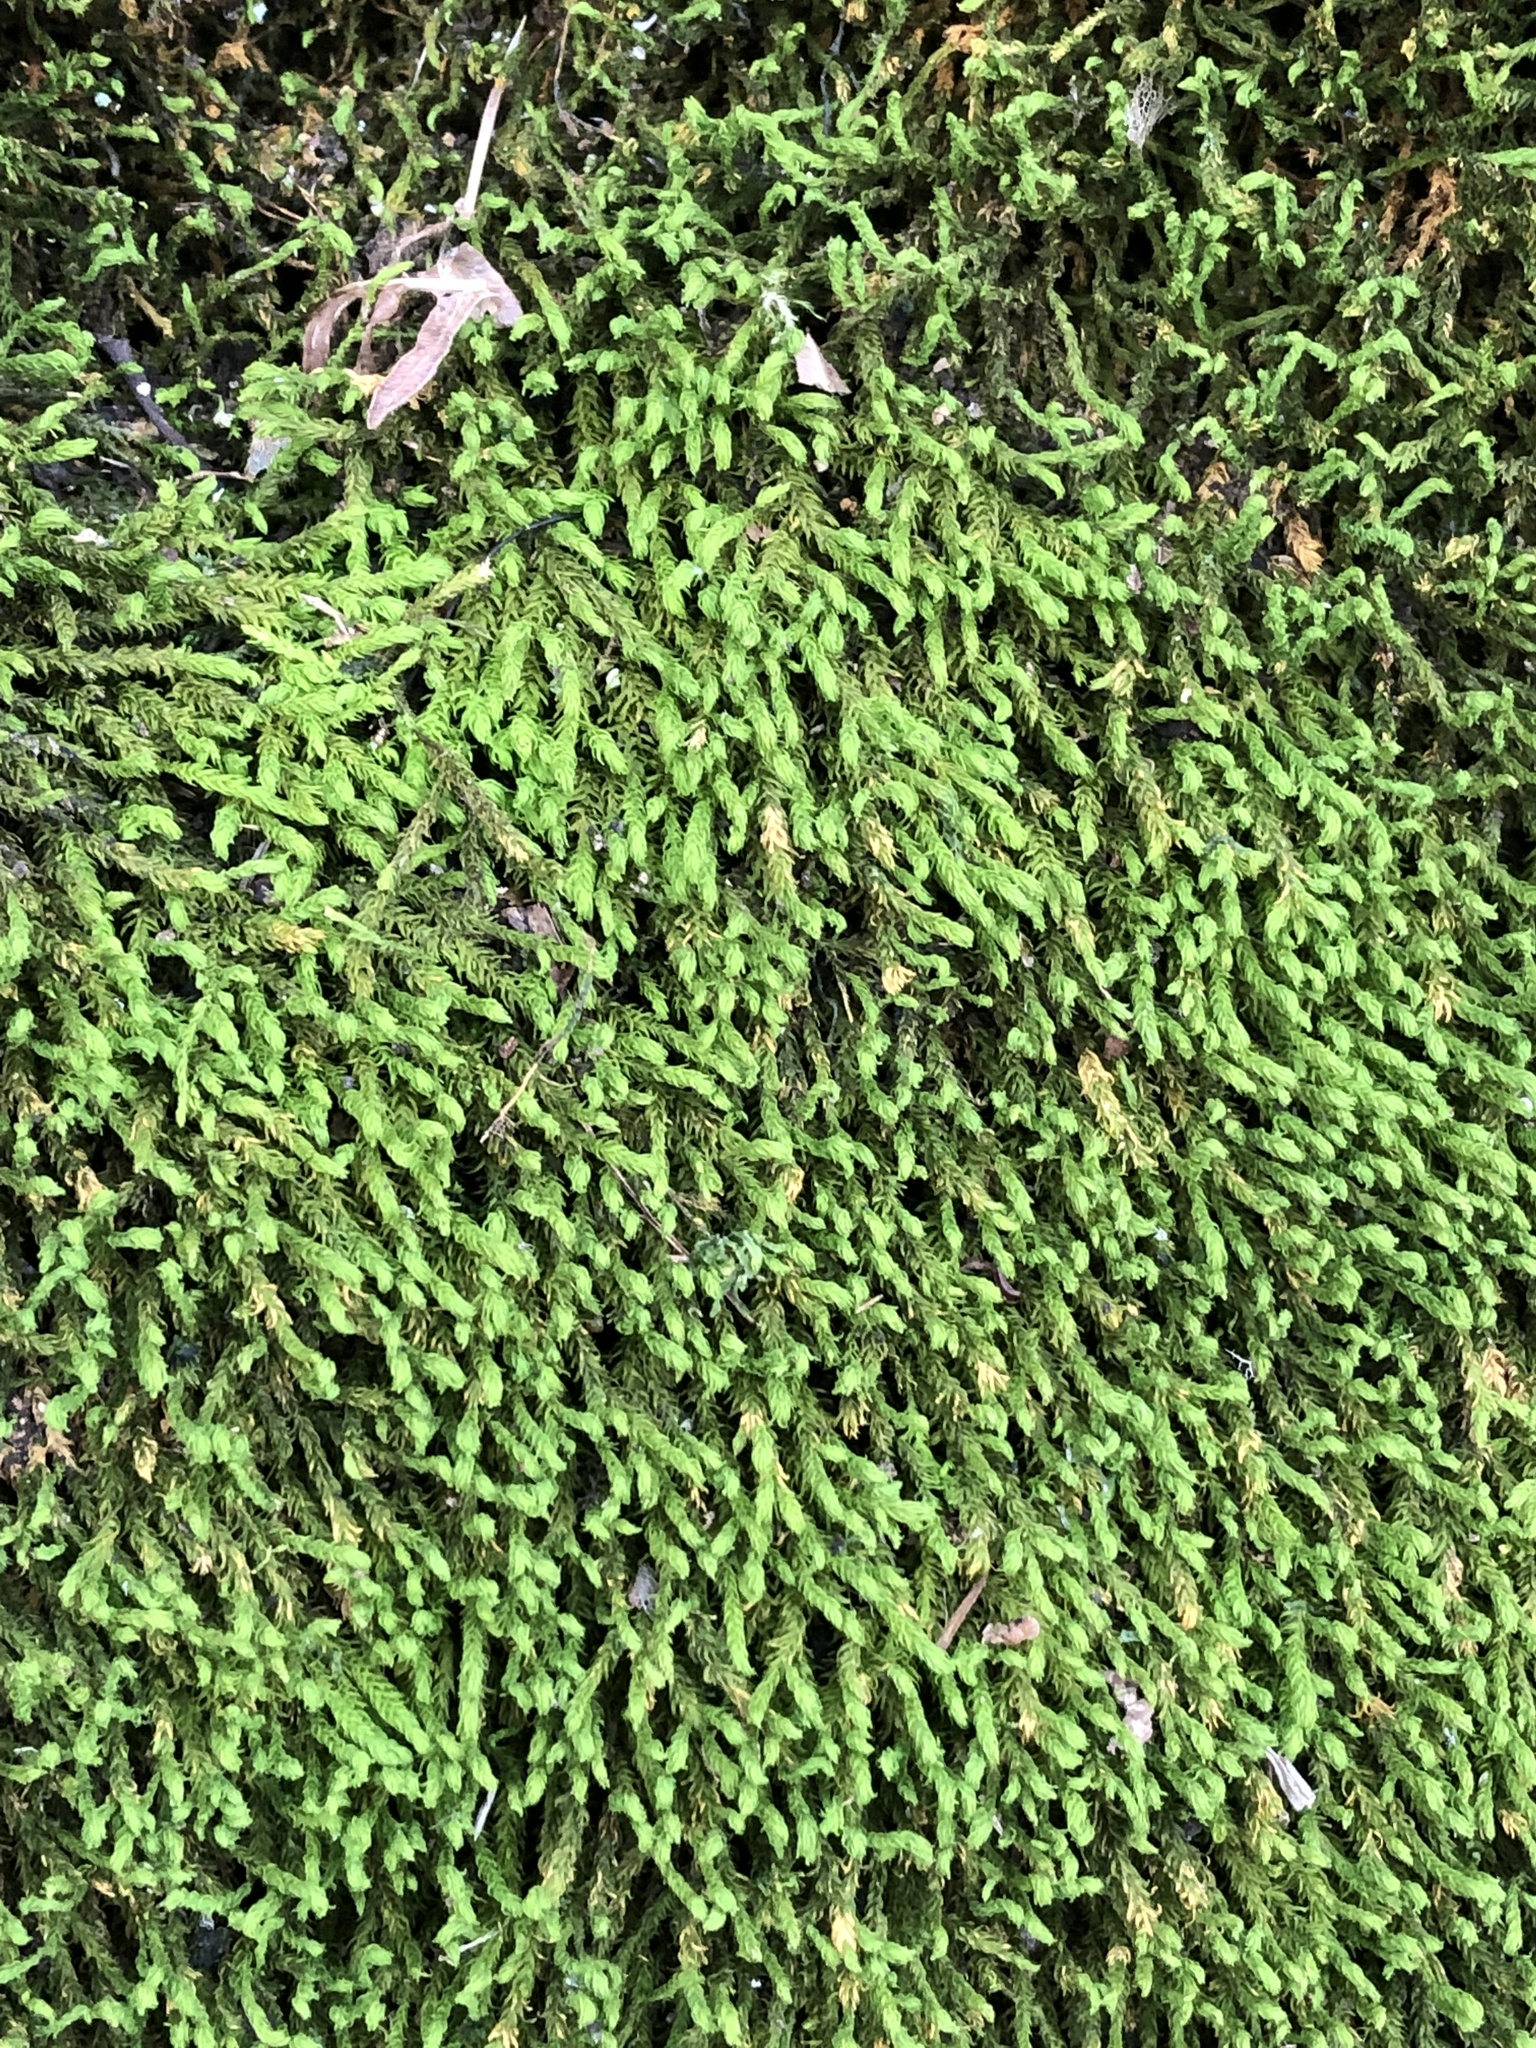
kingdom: Plantae
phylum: Bryophyta
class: Bryopsida
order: Hypnales
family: Anomodontaceae
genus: Anomodon
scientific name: Anomodon viticulosus
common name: Tall anomodon
